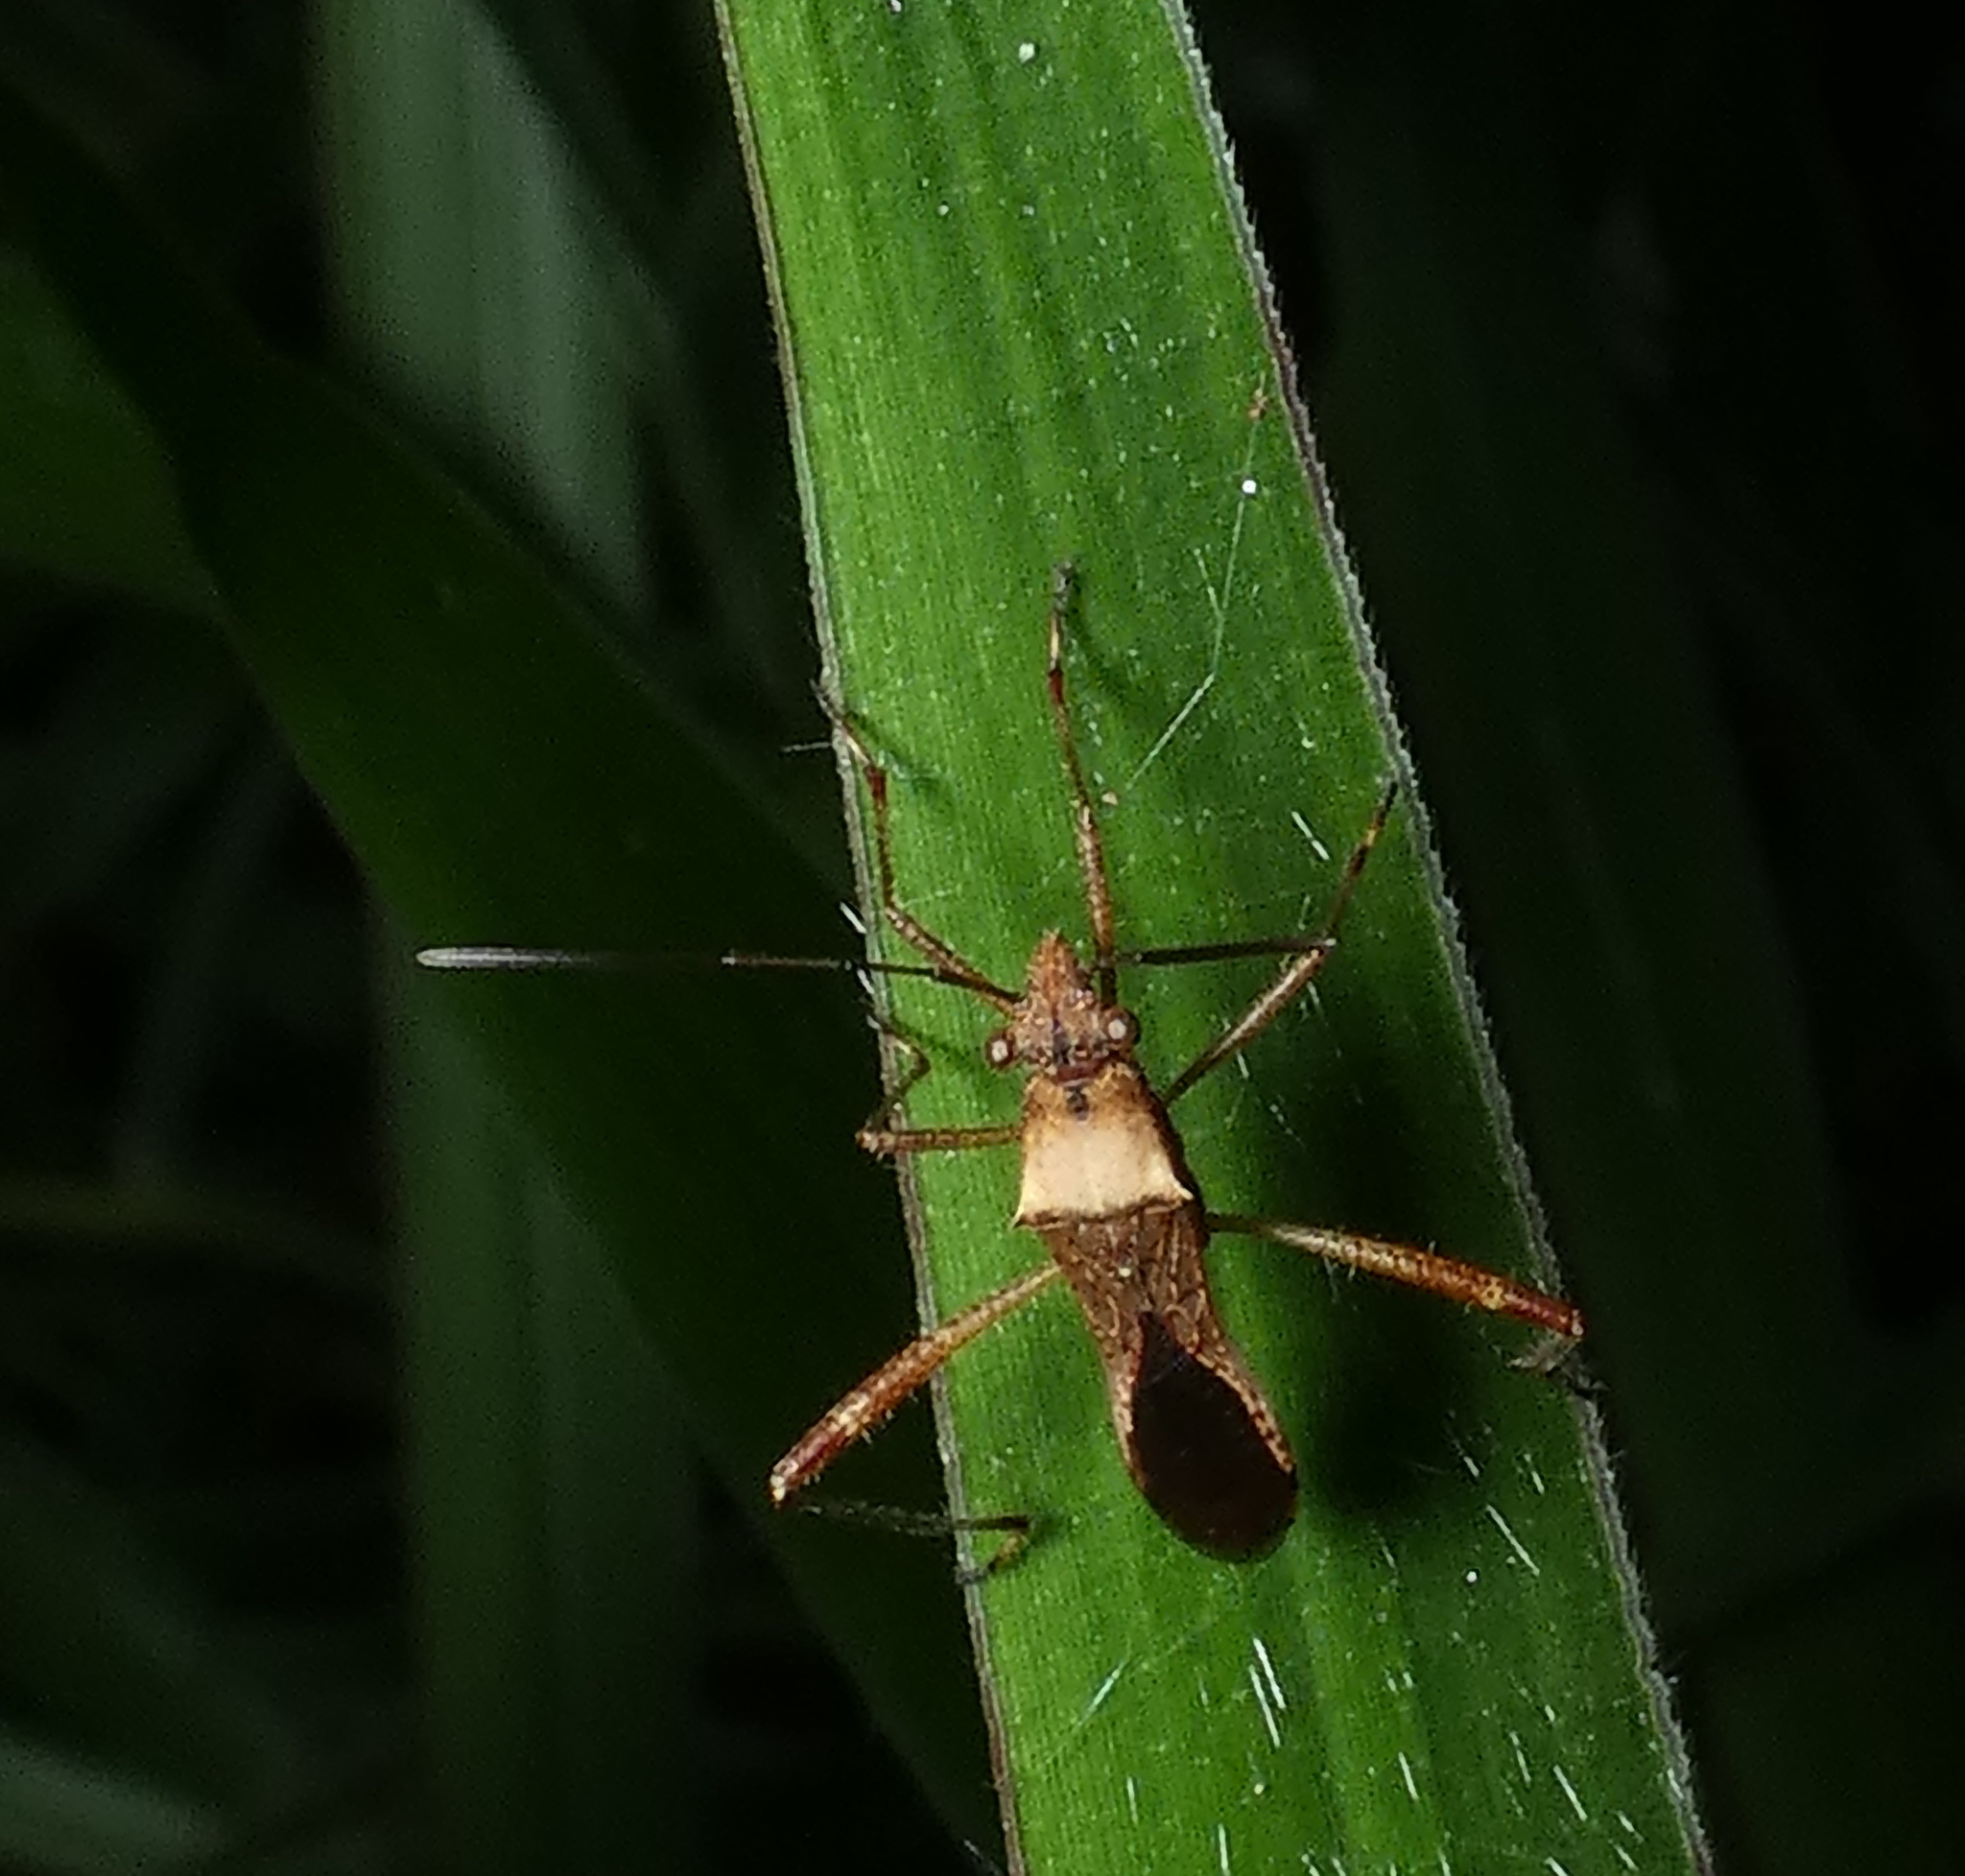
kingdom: Animalia
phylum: Arthropoda
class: Insecta
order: Hemiptera
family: Alydidae
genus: Neomegalotomus
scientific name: Neomegalotomus parvus
